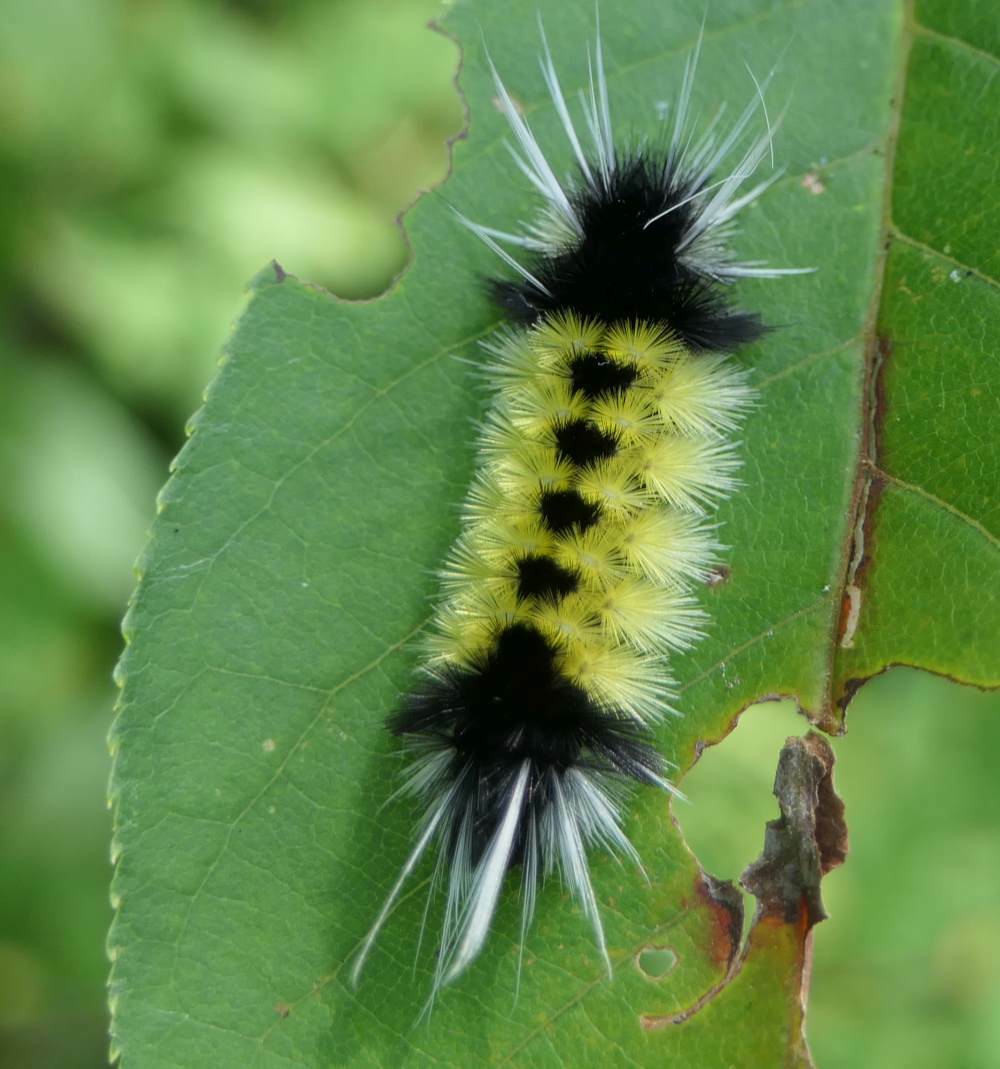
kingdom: Animalia
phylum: Arthropoda
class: Insecta
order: Lepidoptera
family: Erebidae
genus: Lophocampa
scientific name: Lophocampa maculata
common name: Spotted tussock moth
